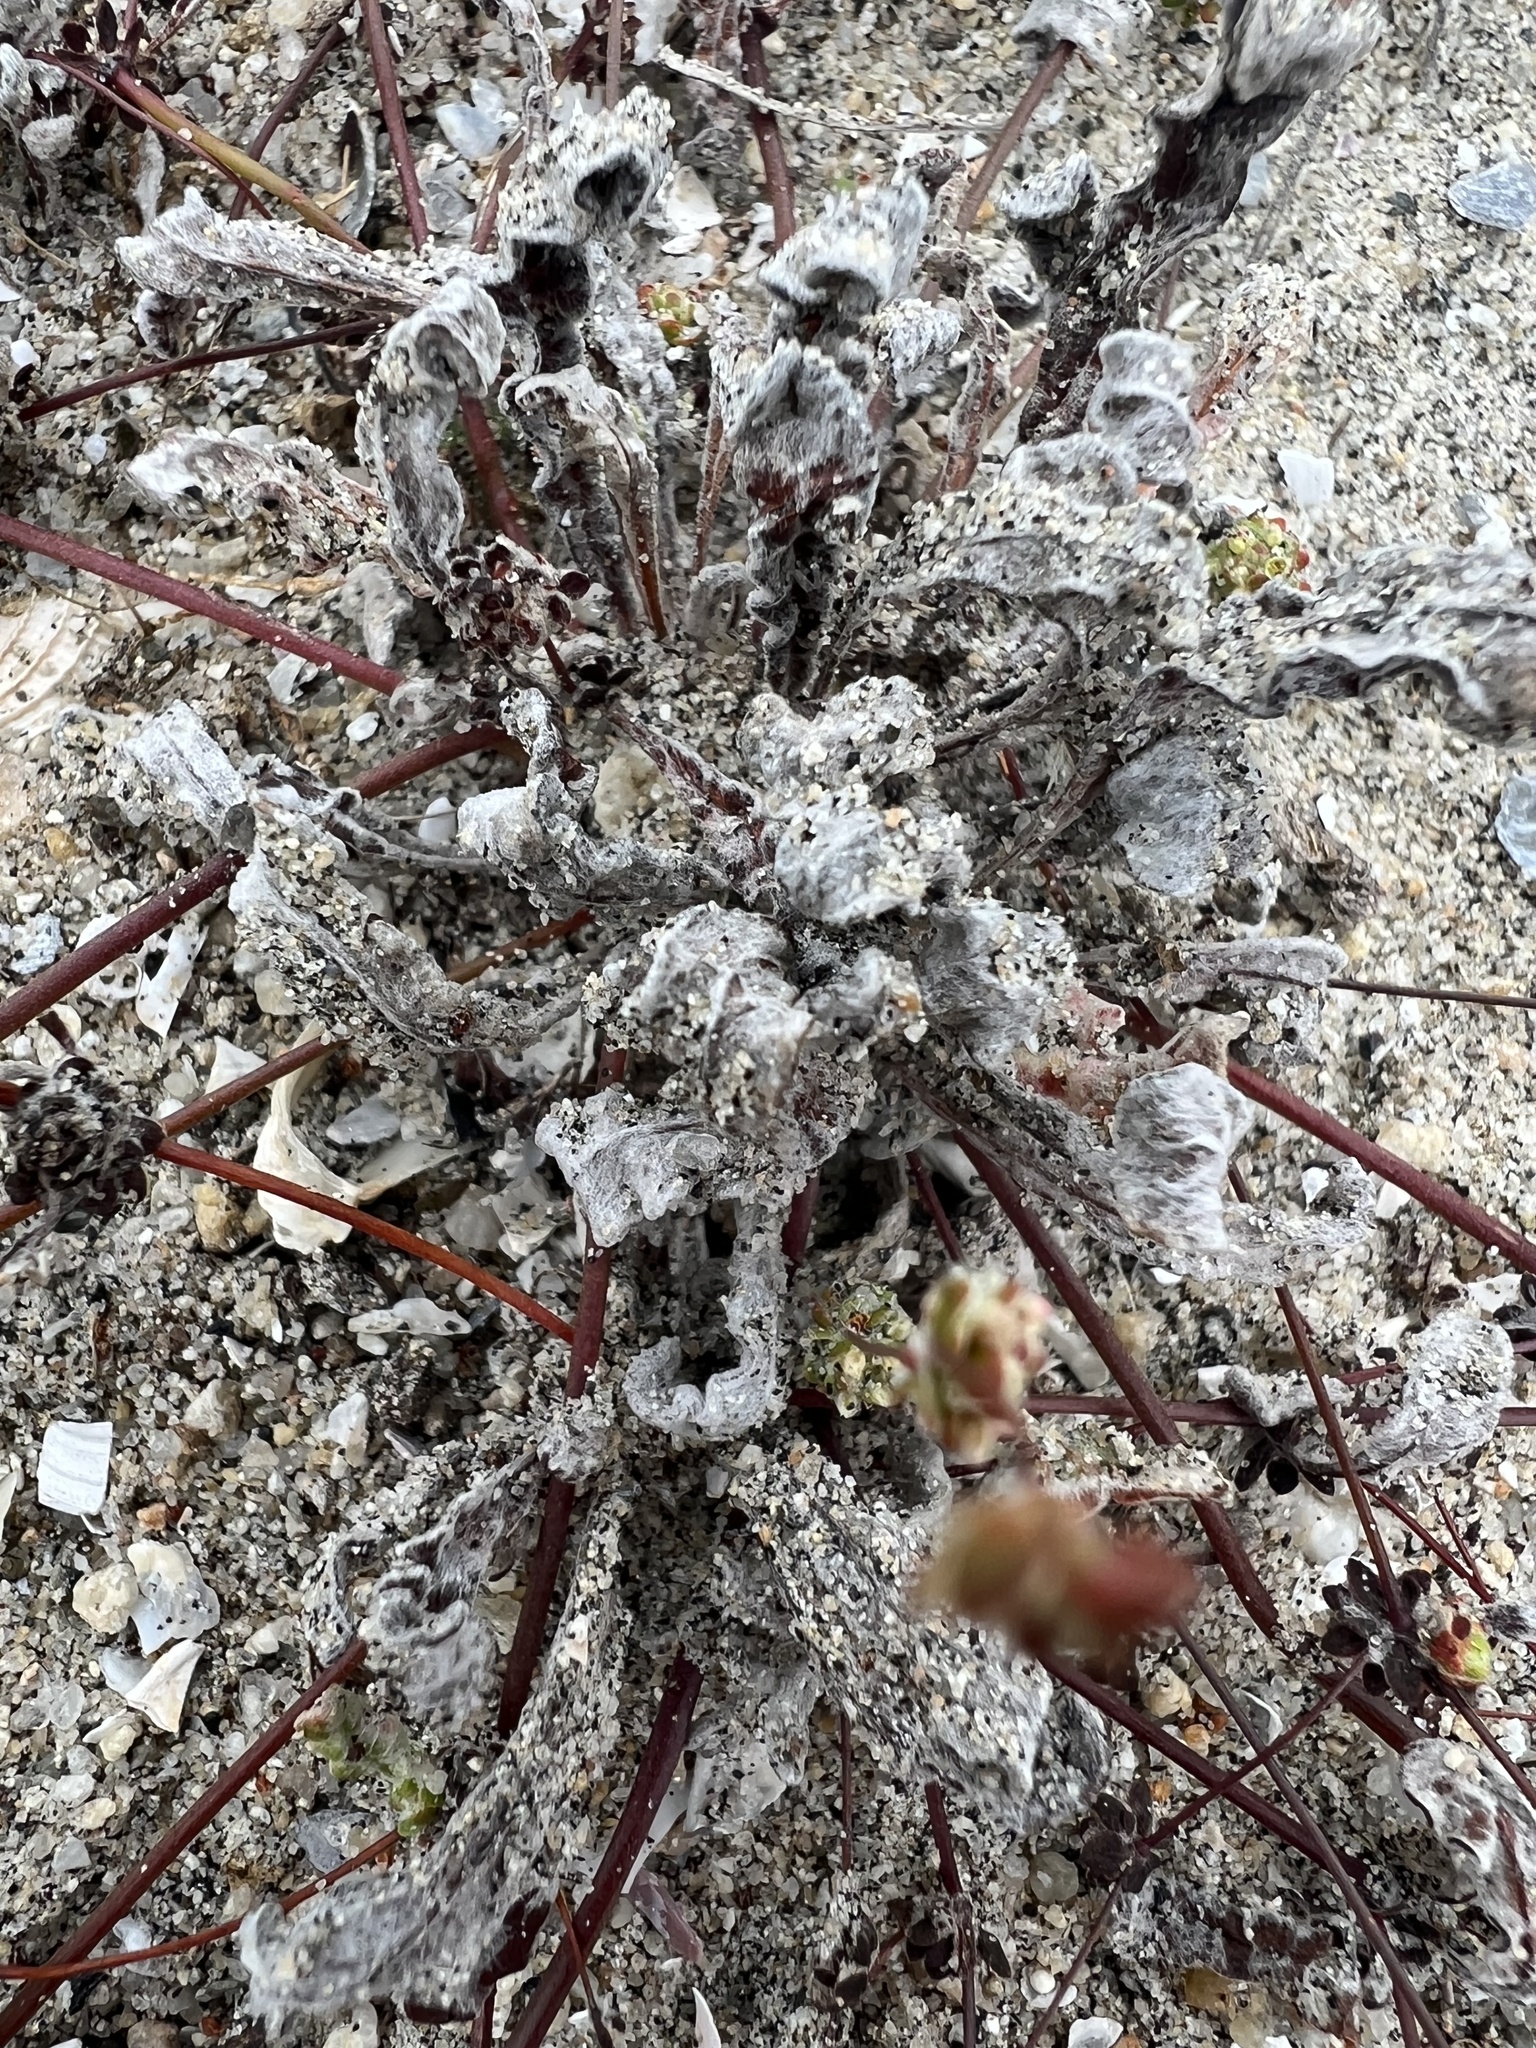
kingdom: Plantae
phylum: Tracheophyta
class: Magnoliopsida
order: Caryophyllales
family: Polygonaceae
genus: Nemacaulis
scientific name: Nemacaulis denudata
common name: Woolly-heads
